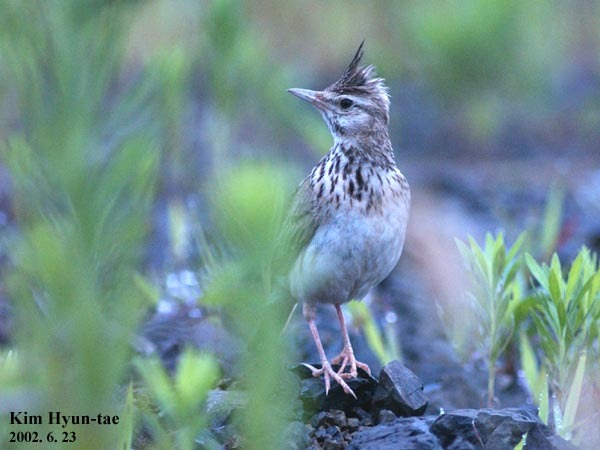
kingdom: Animalia
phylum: Chordata
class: Aves
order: Passeriformes
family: Alaudidae
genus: Galerida
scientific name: Galerida cristata
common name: Crested lark
